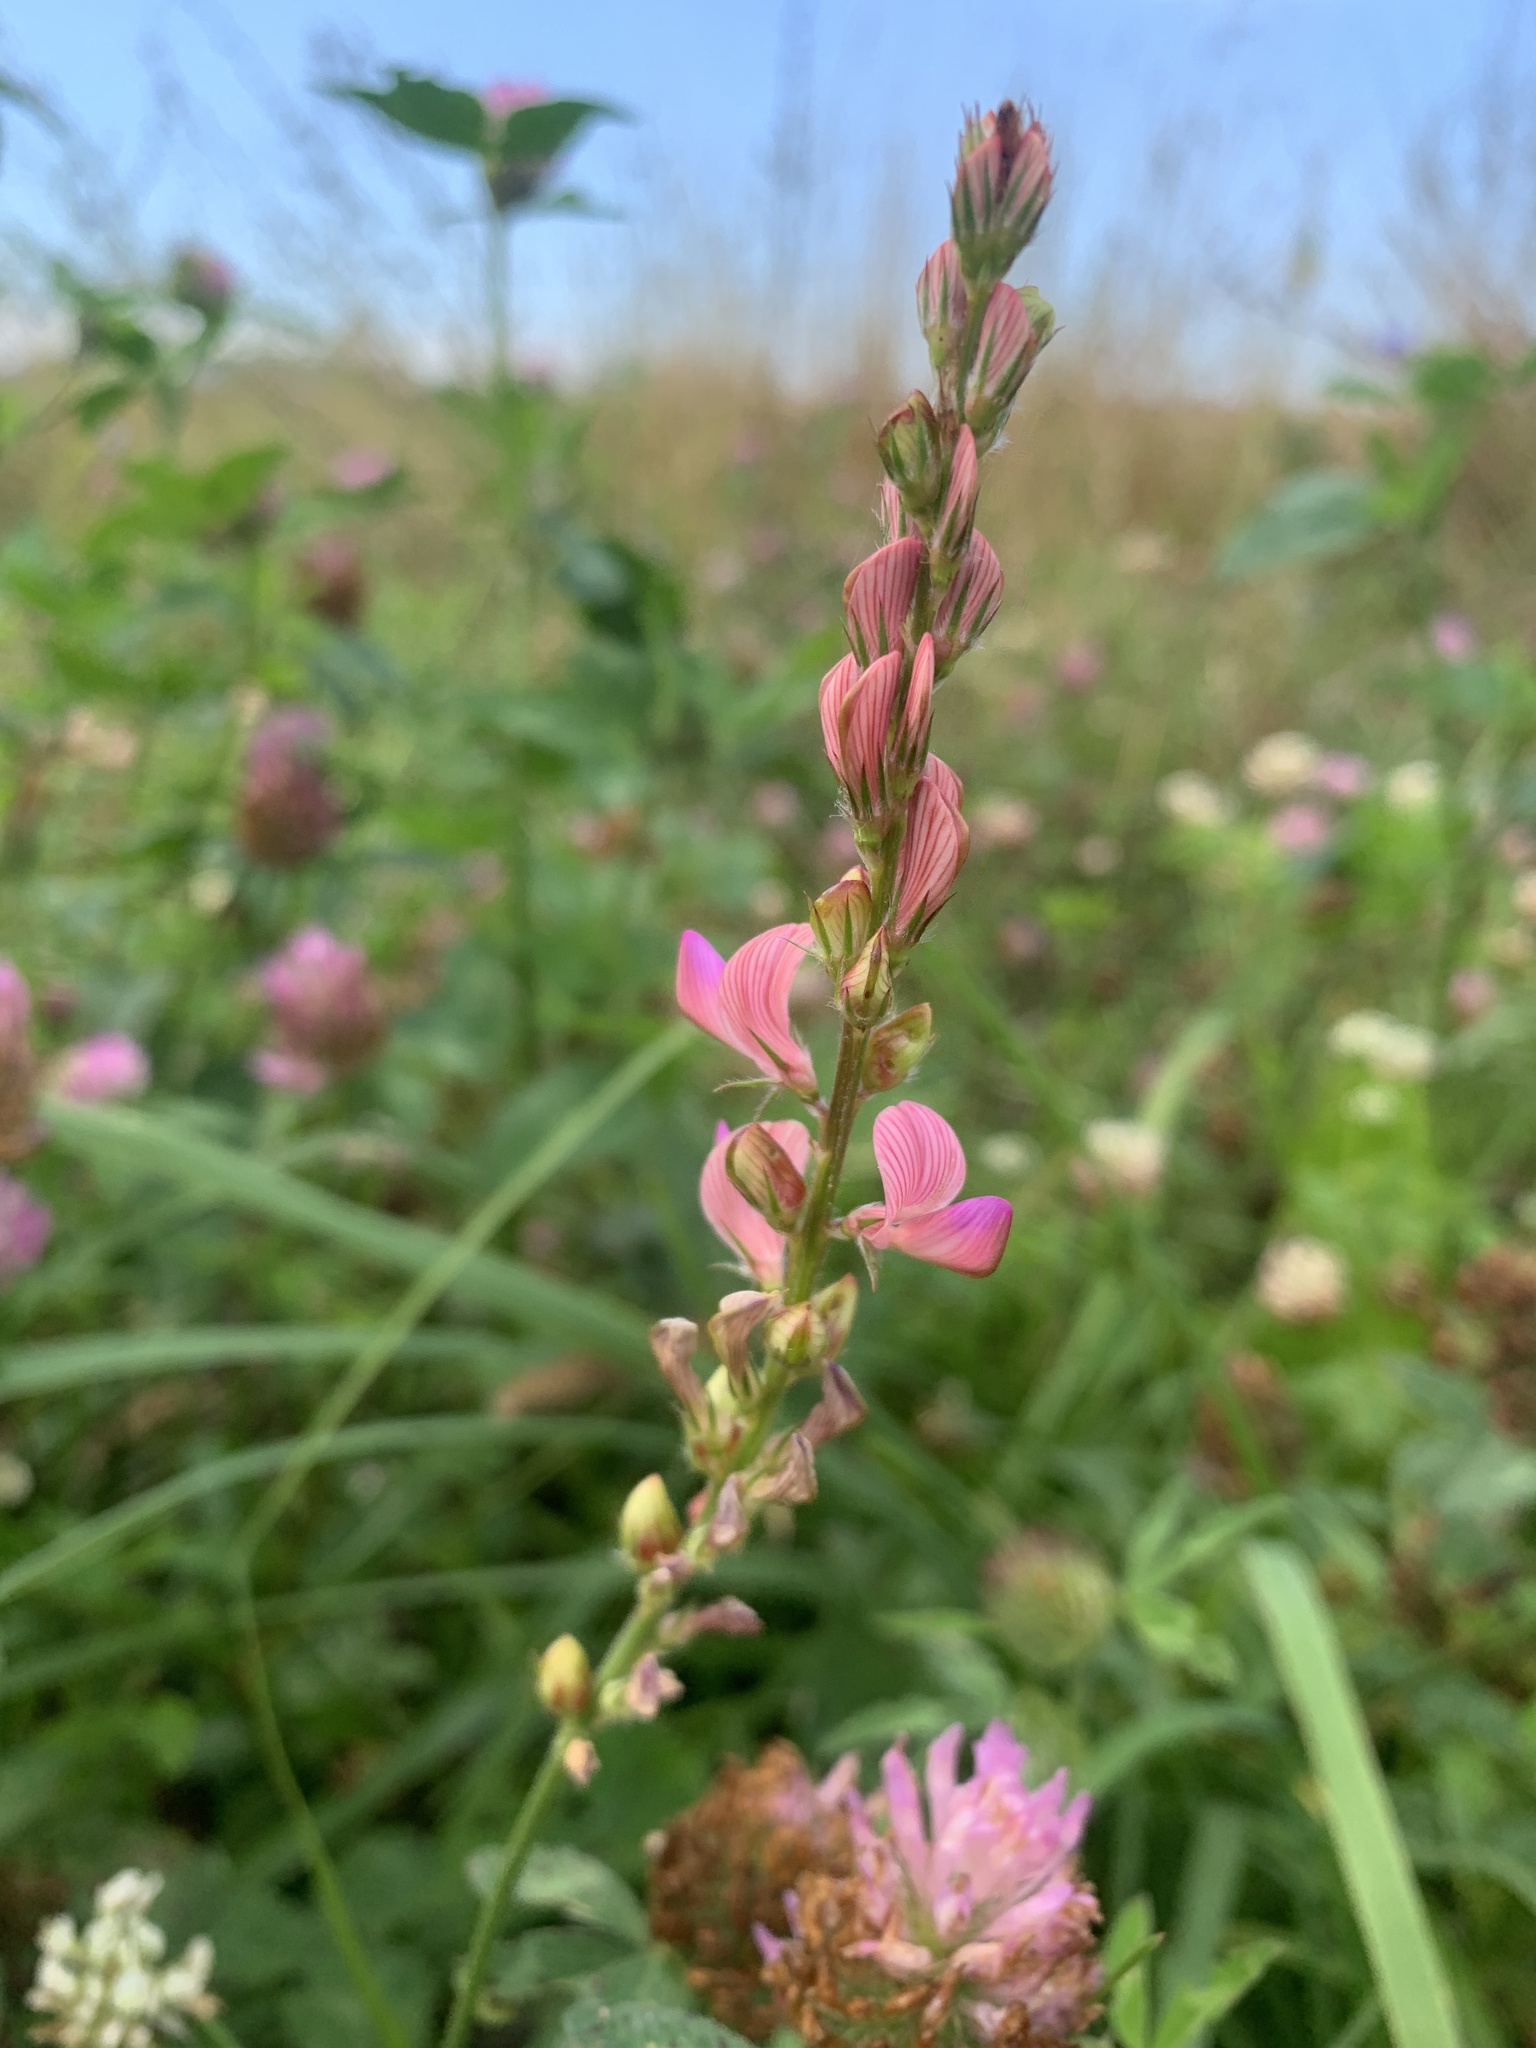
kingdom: Plantae
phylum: Tracheophyta
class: Magnoliopsida
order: Fabales
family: Fabaceae
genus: Onobrychis
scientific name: Onobrychis viciifolia
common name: Sainfoin
